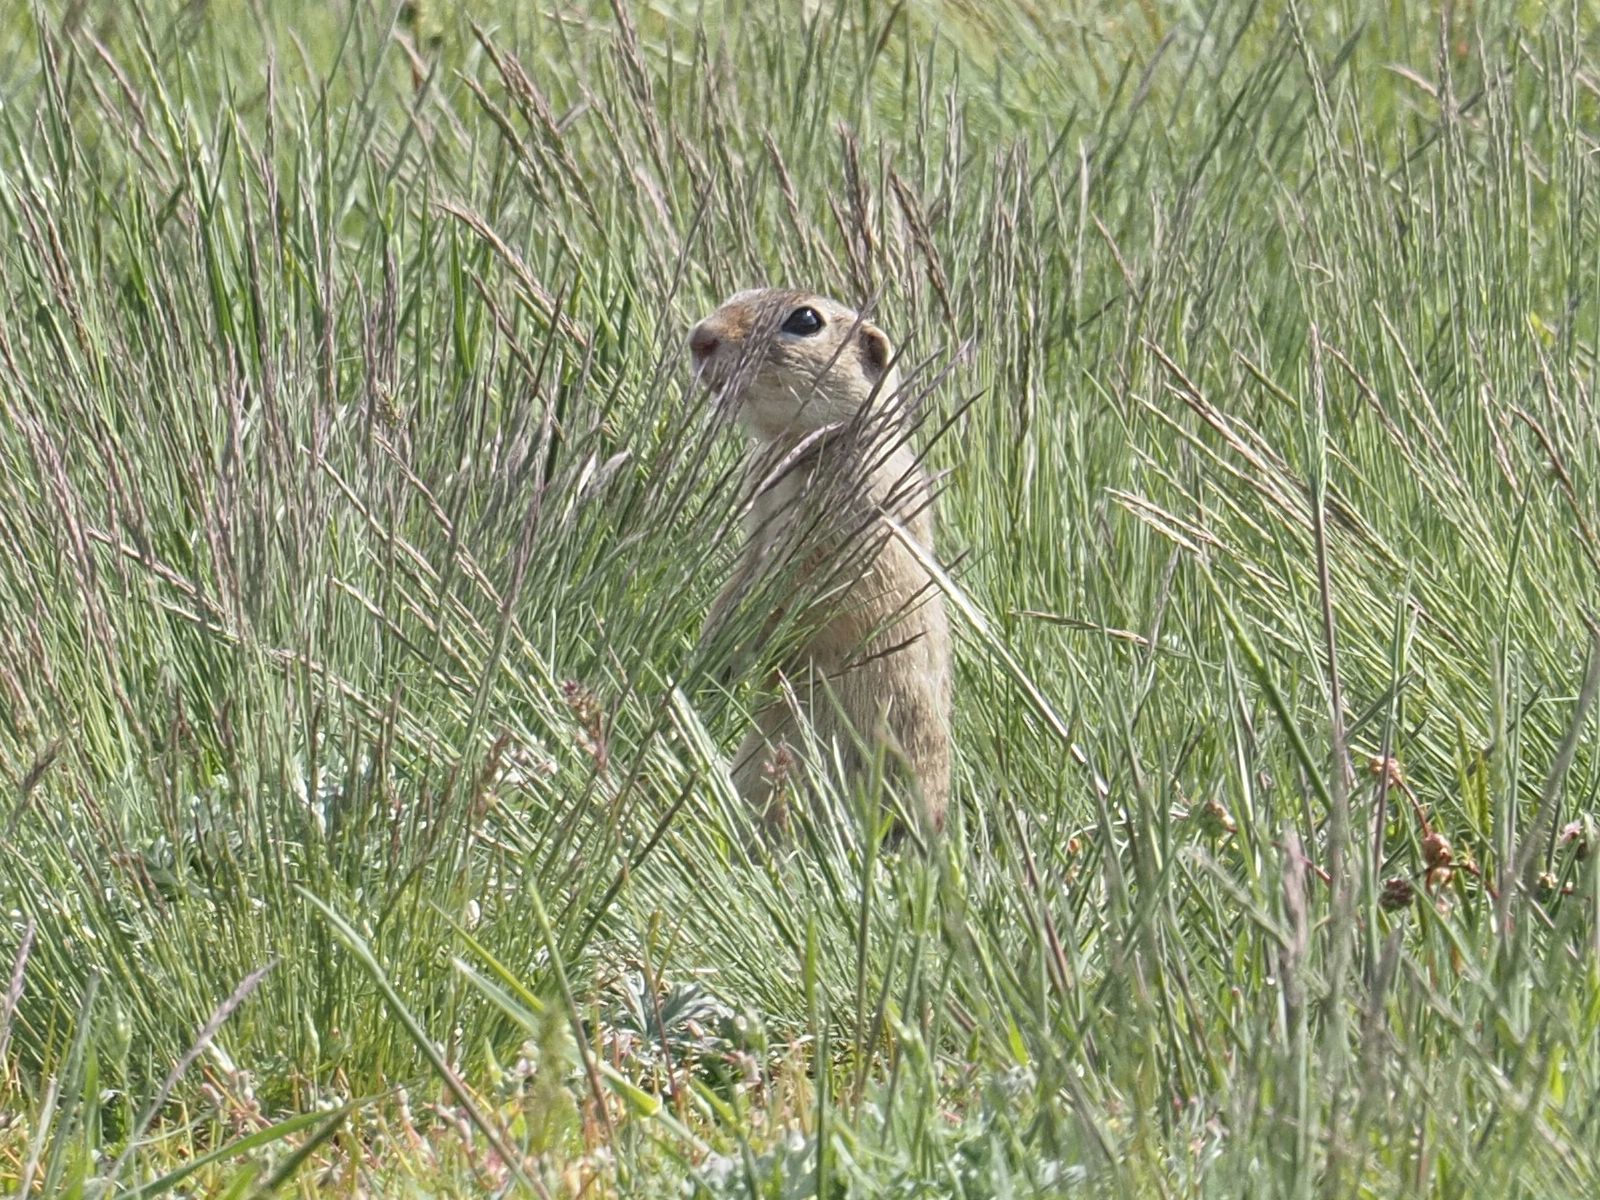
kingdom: Animalia
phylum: Chordata
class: Mammalia
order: Rodentia
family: Sciuridae
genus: Spermophilus
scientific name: Spermophilus citellus
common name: European ground squirrel
